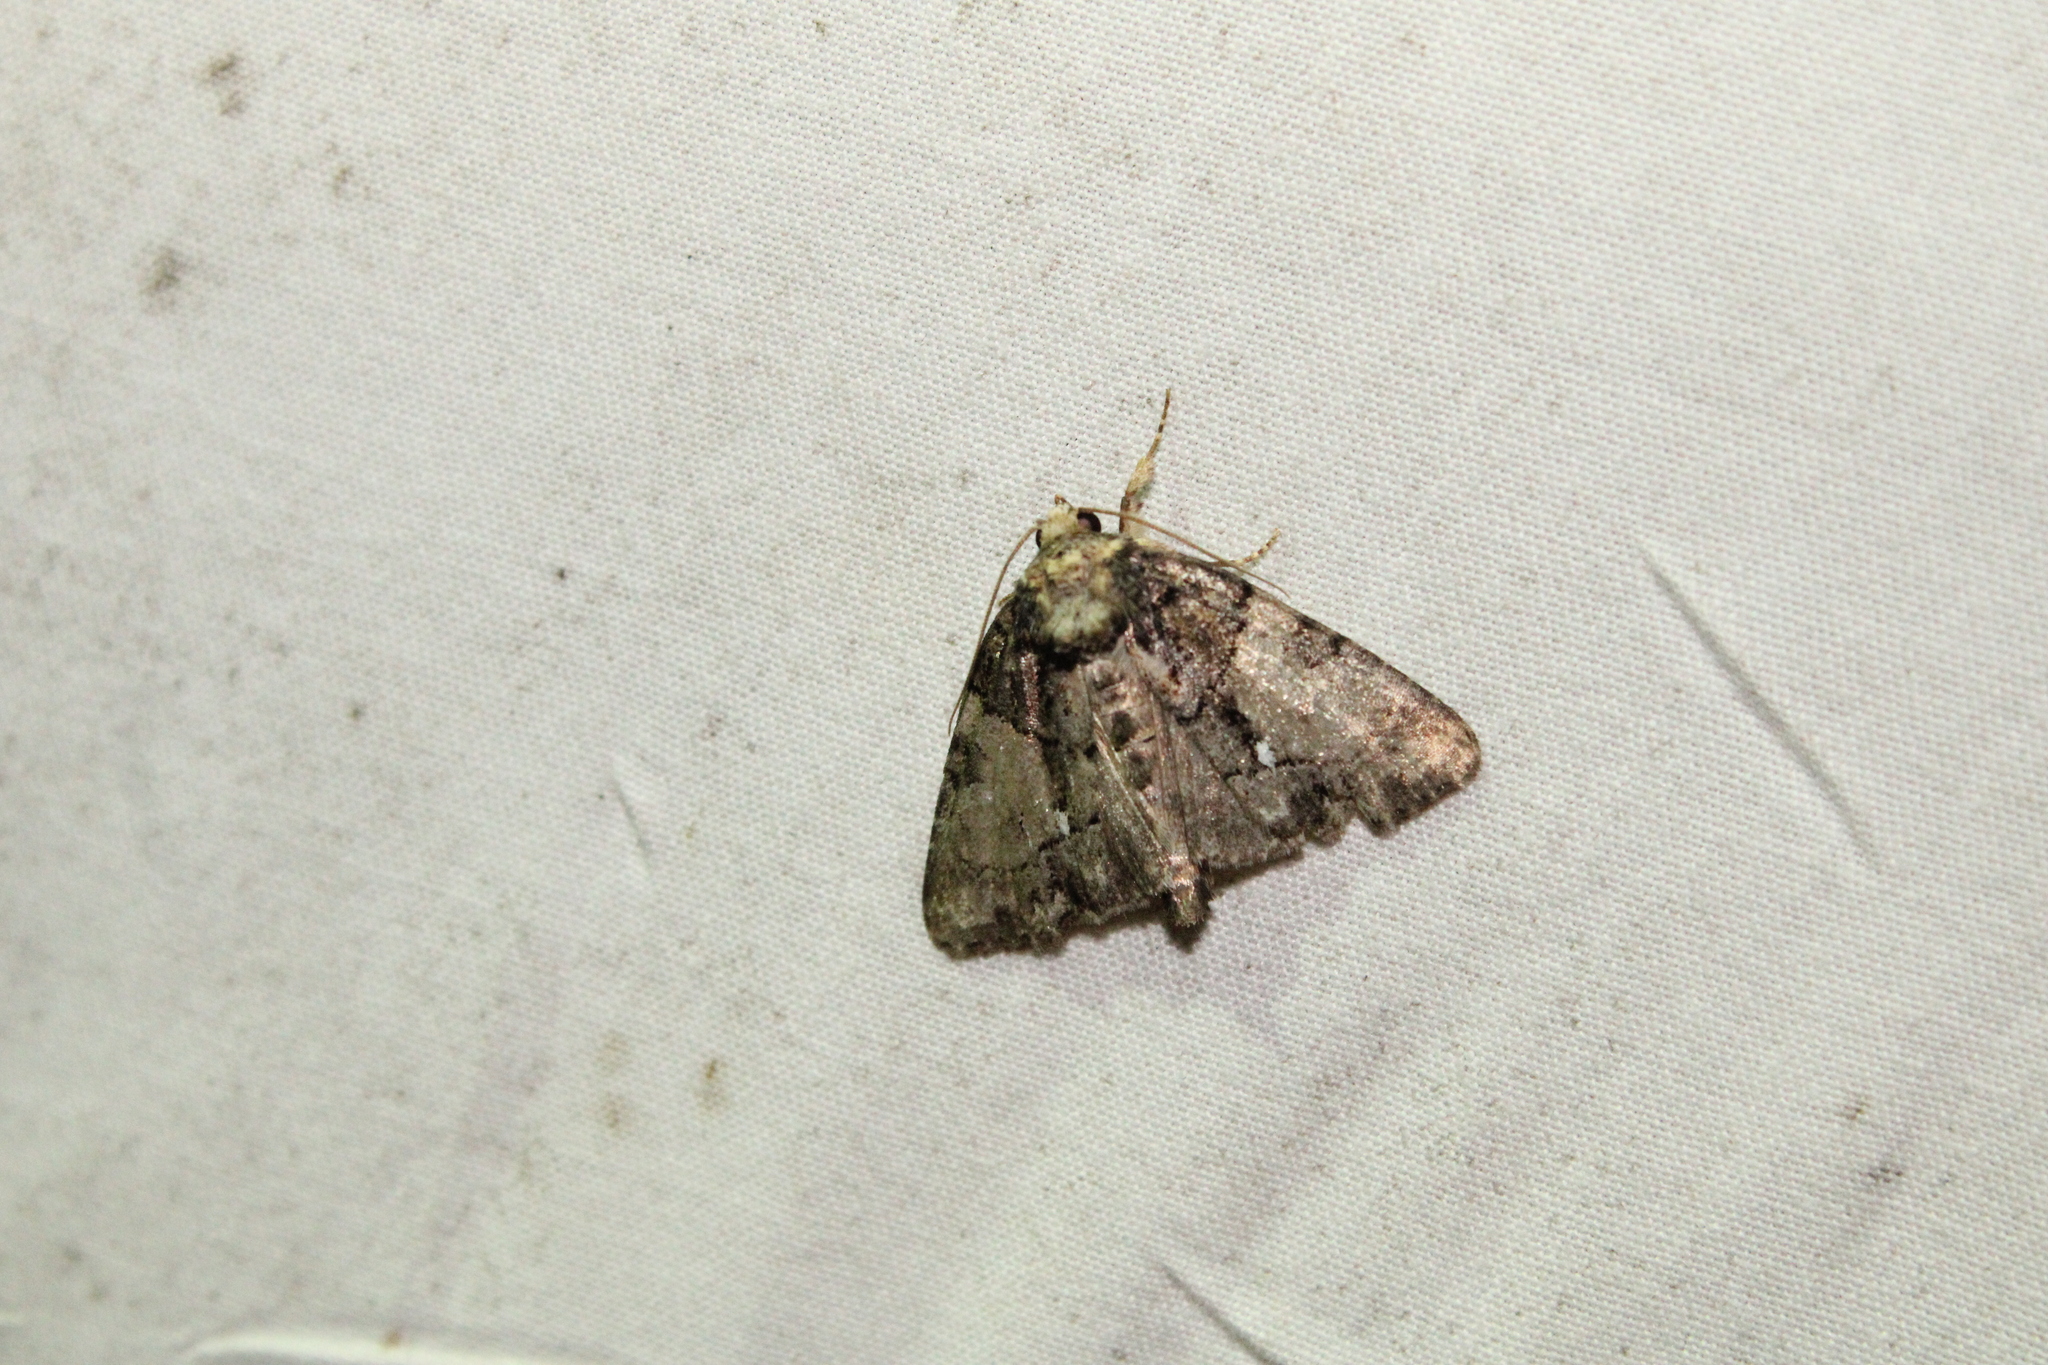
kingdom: Animalia
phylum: Arthropoda
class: Insecta
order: Lepidoptera
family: Noctuidae
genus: Chytonix
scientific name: Chytonix palliatricula
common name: Cloaked marvel
